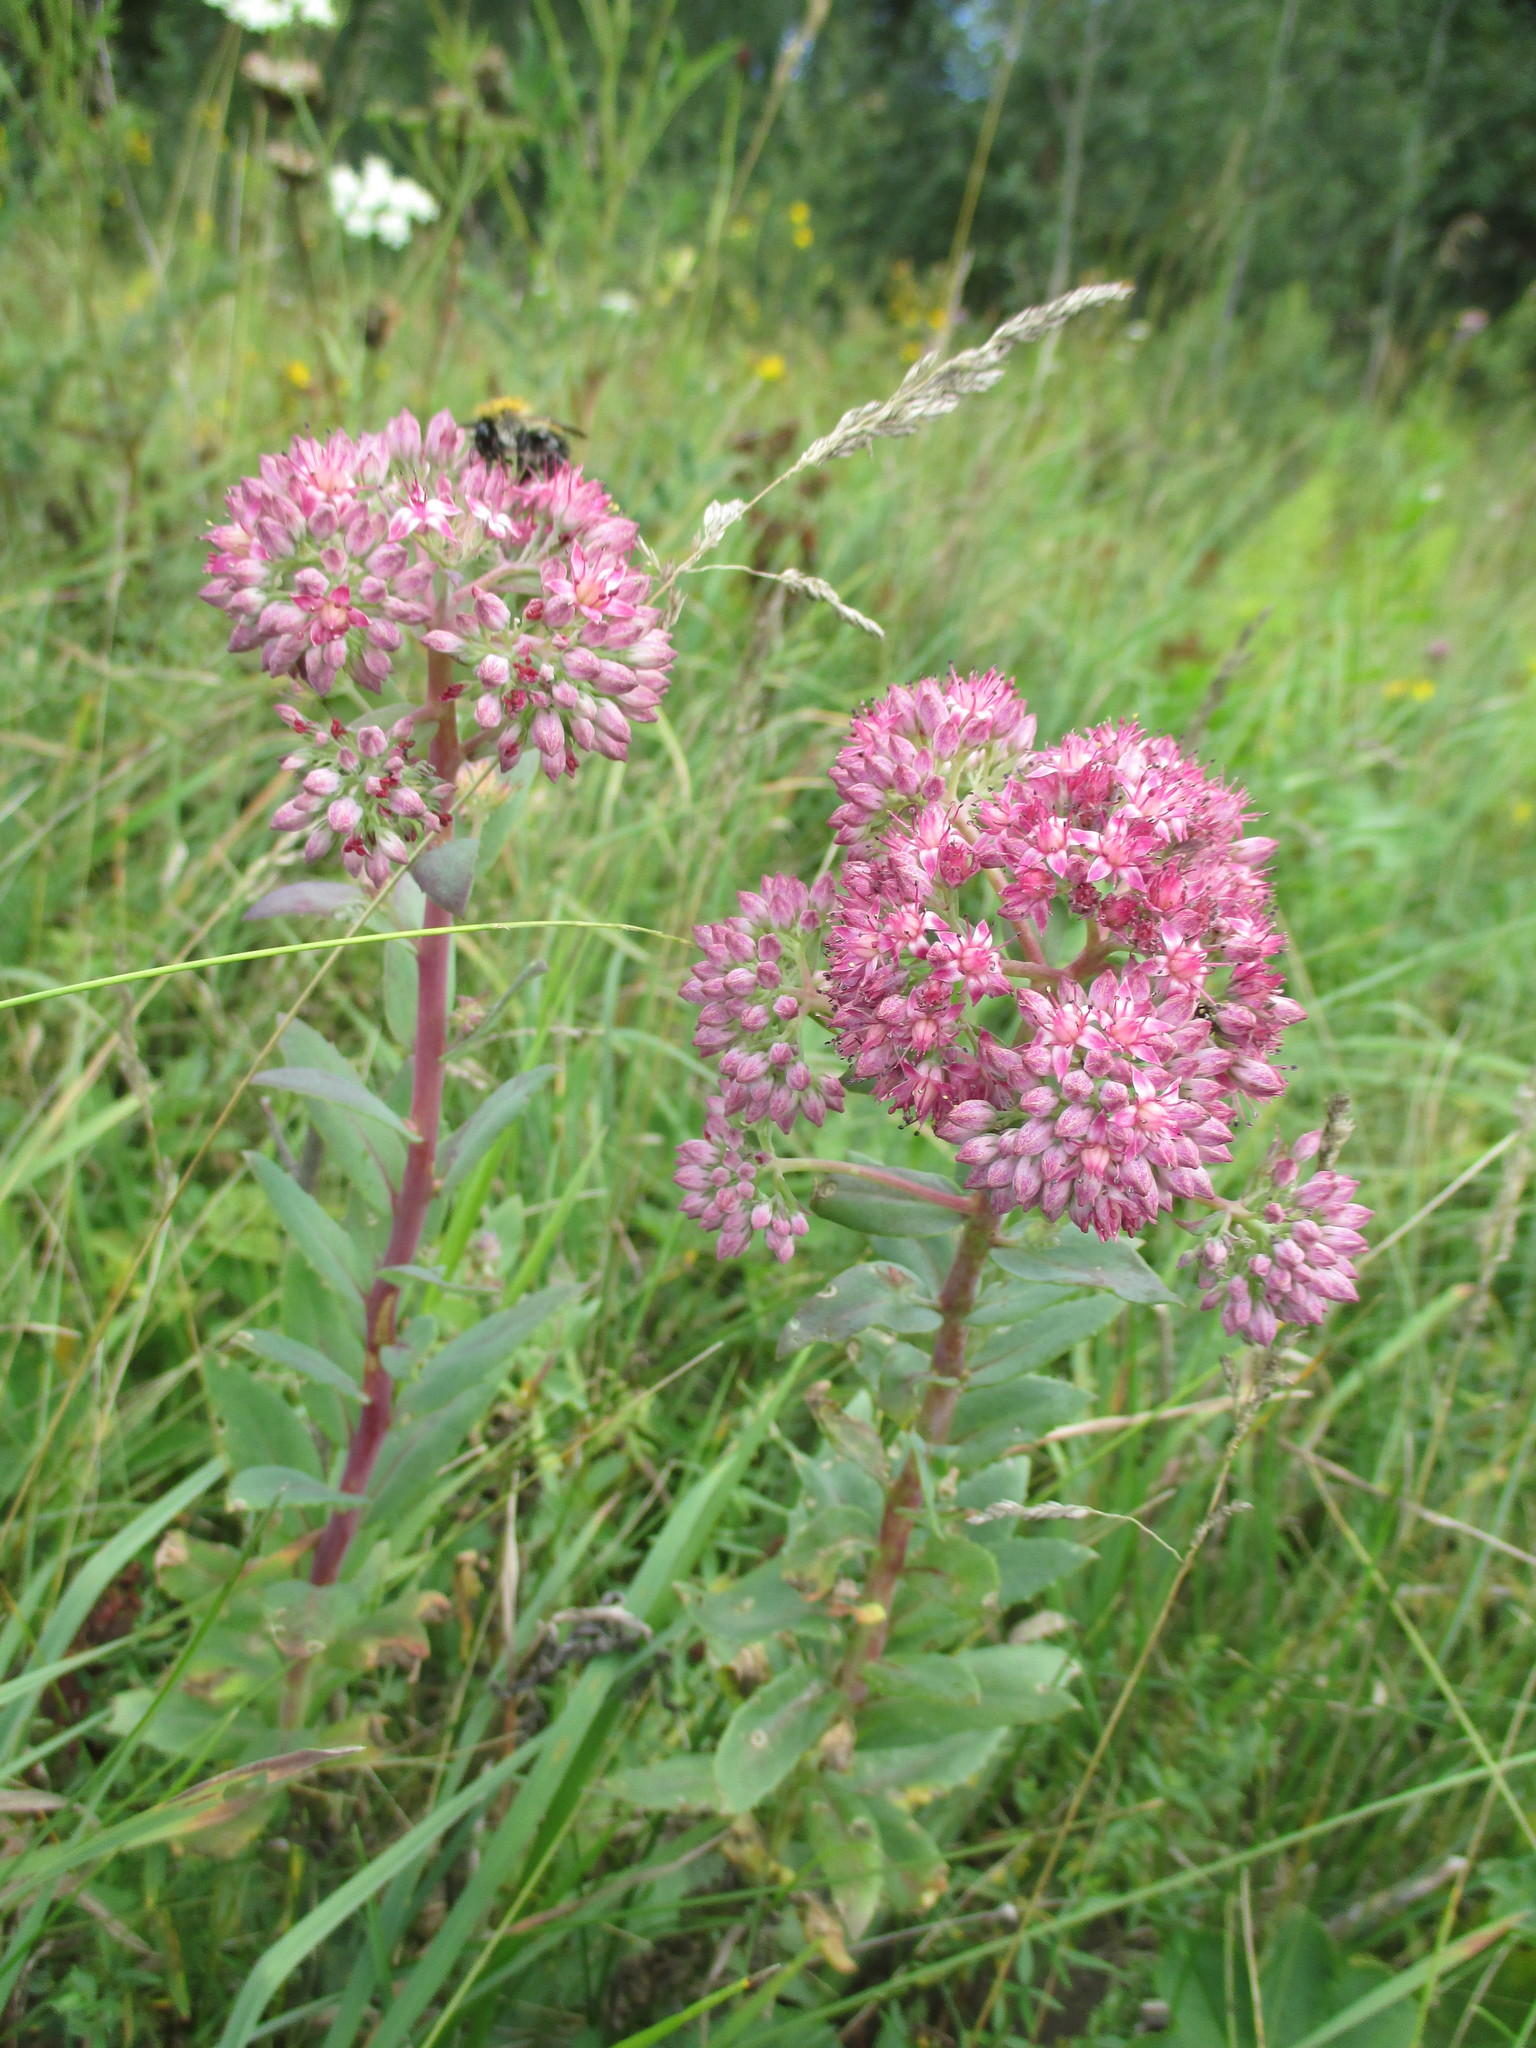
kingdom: Plantae
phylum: Tracheophyta
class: Magnoliopsida
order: Saxifragales
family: Crassulaceae
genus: Hylotelephium
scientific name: Hylotelephium telephium
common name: Live-forever
